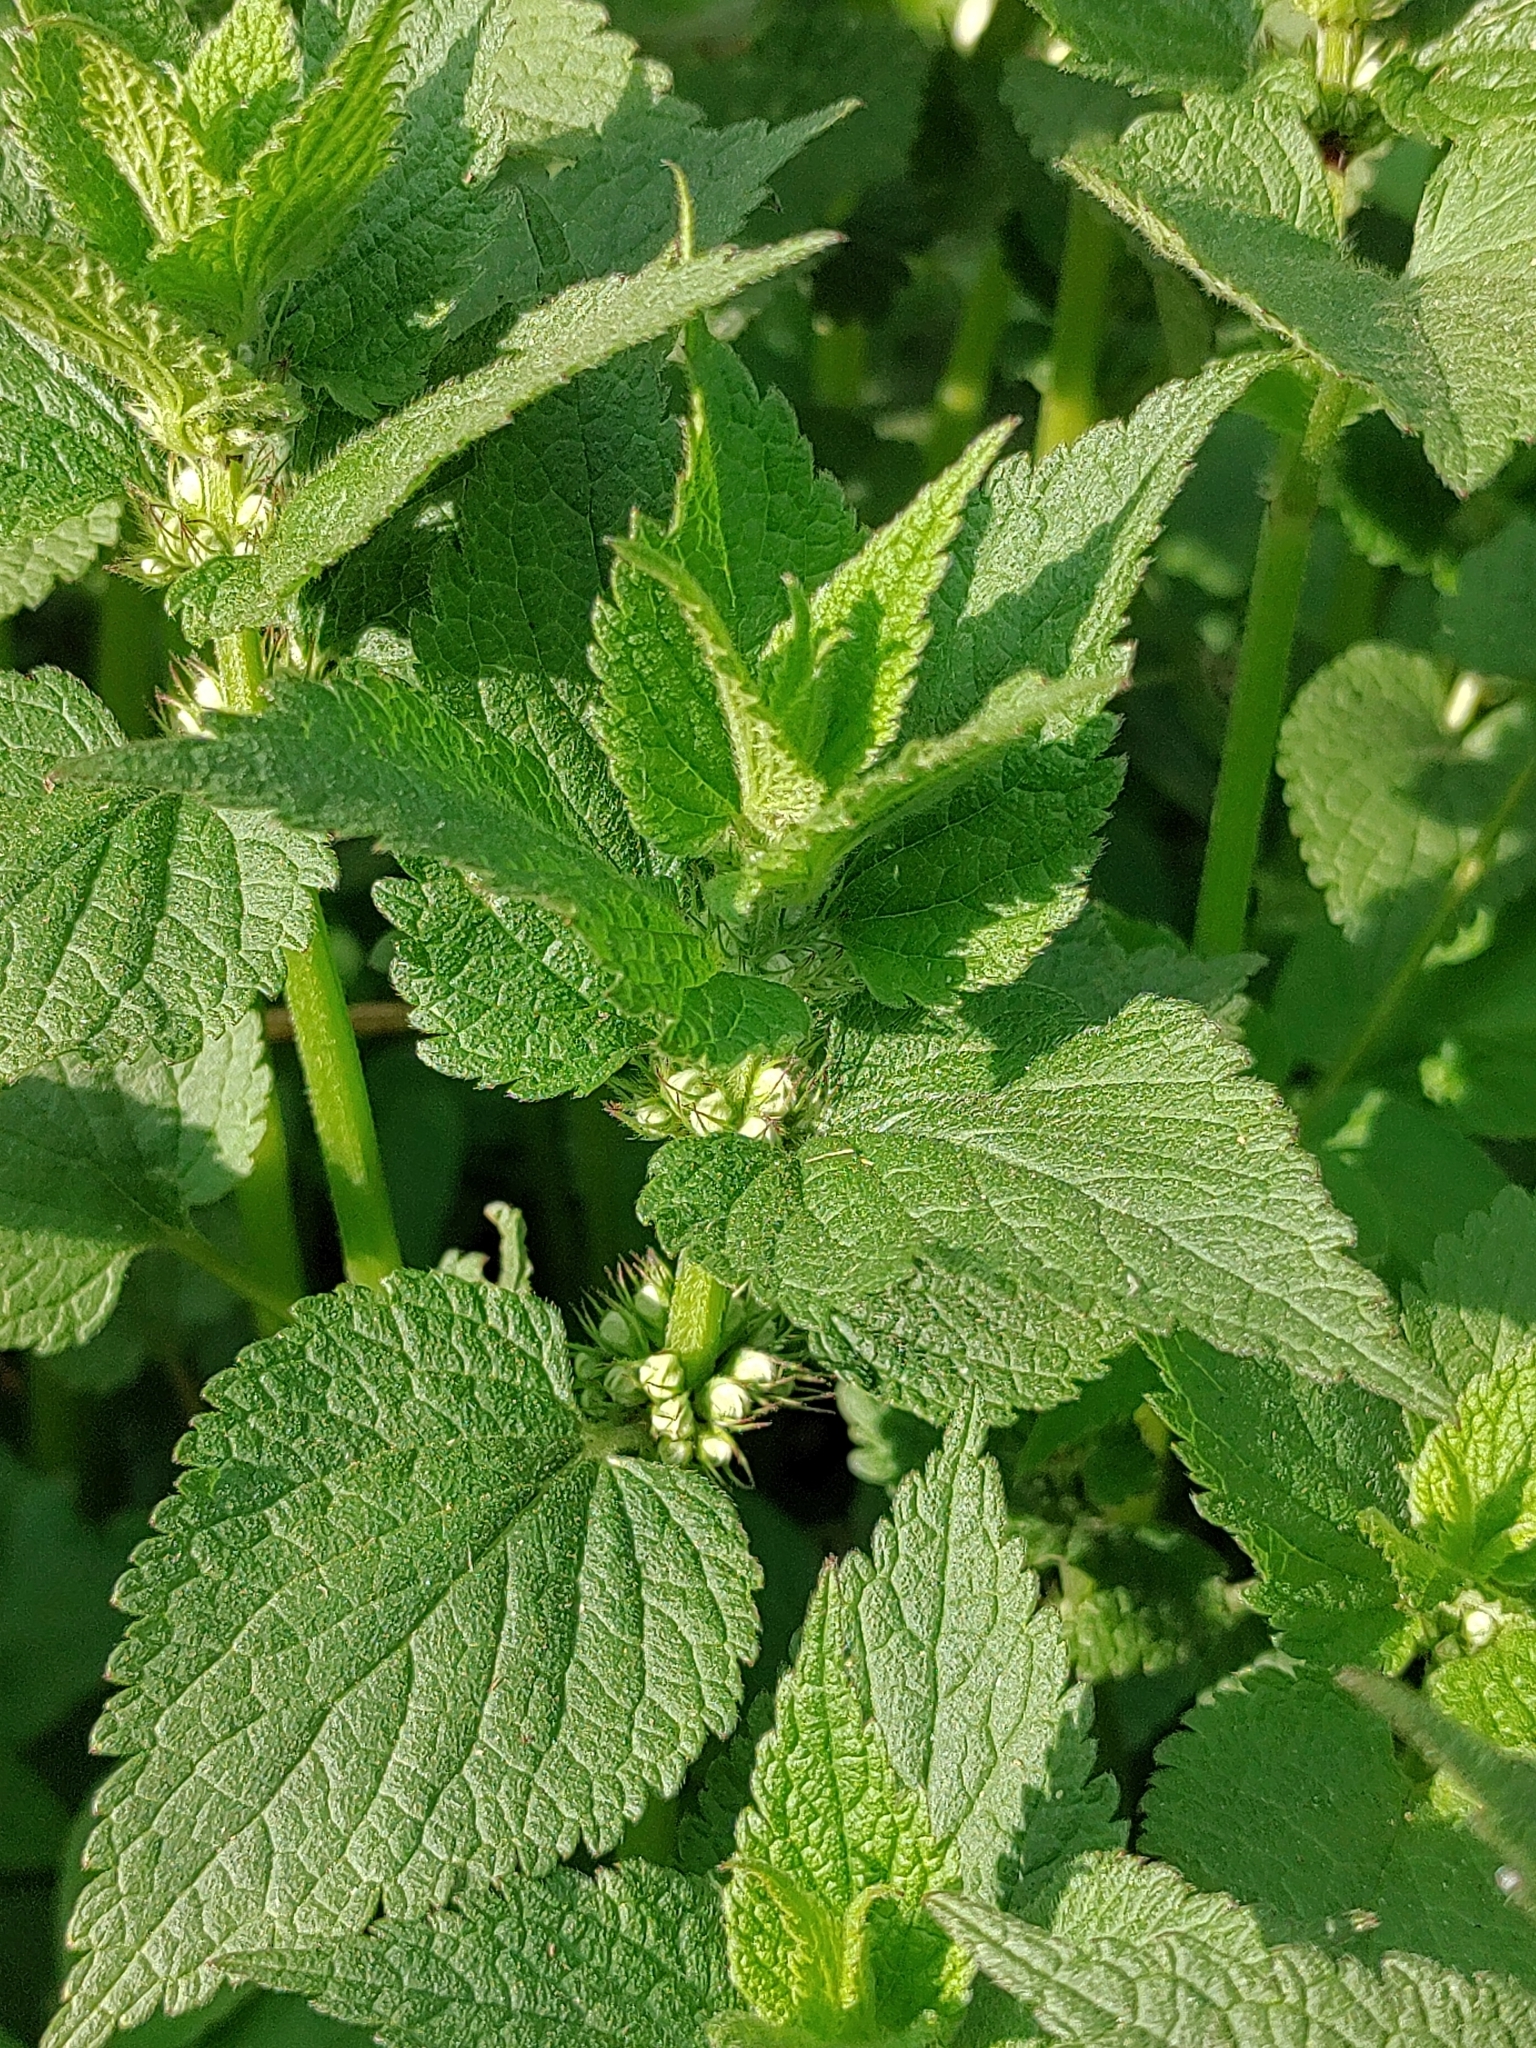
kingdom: Plantae
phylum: Tracheophyta
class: Magnoliopsida
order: Lamiales
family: Lamiaceae
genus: Lamium
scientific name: Lamium album
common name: White dead-nettle
